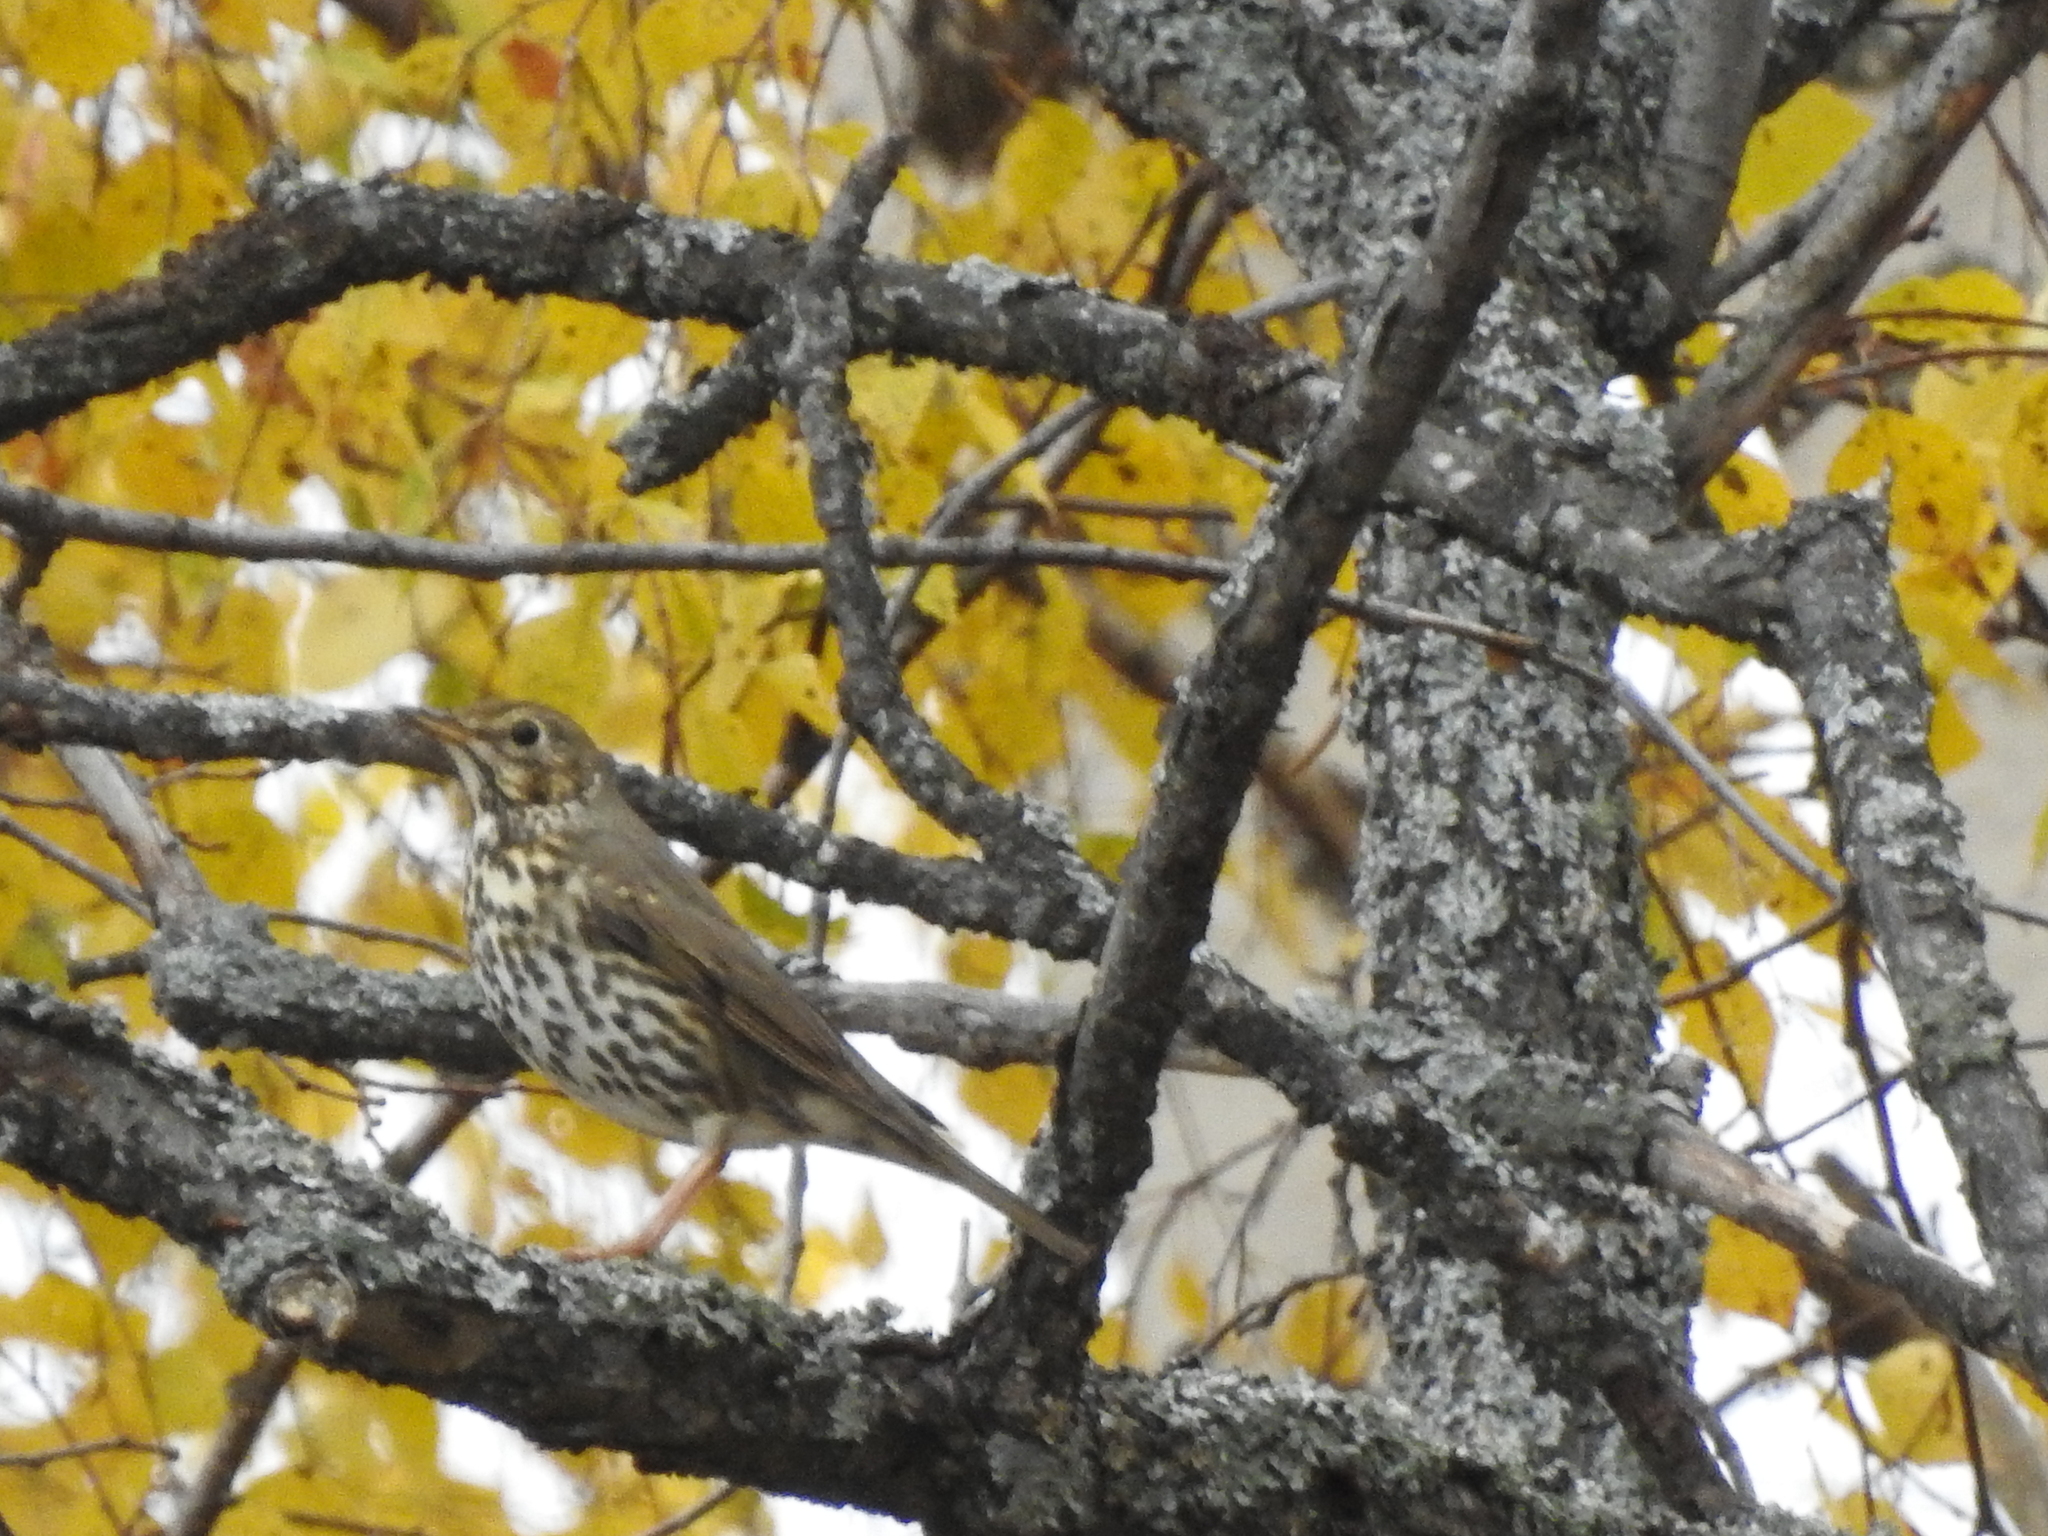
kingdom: Animalia
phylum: Chordata
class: Aves
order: Passeriformes
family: Turdidae
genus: Turdus
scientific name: Turdus philomelos
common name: Song thrush
